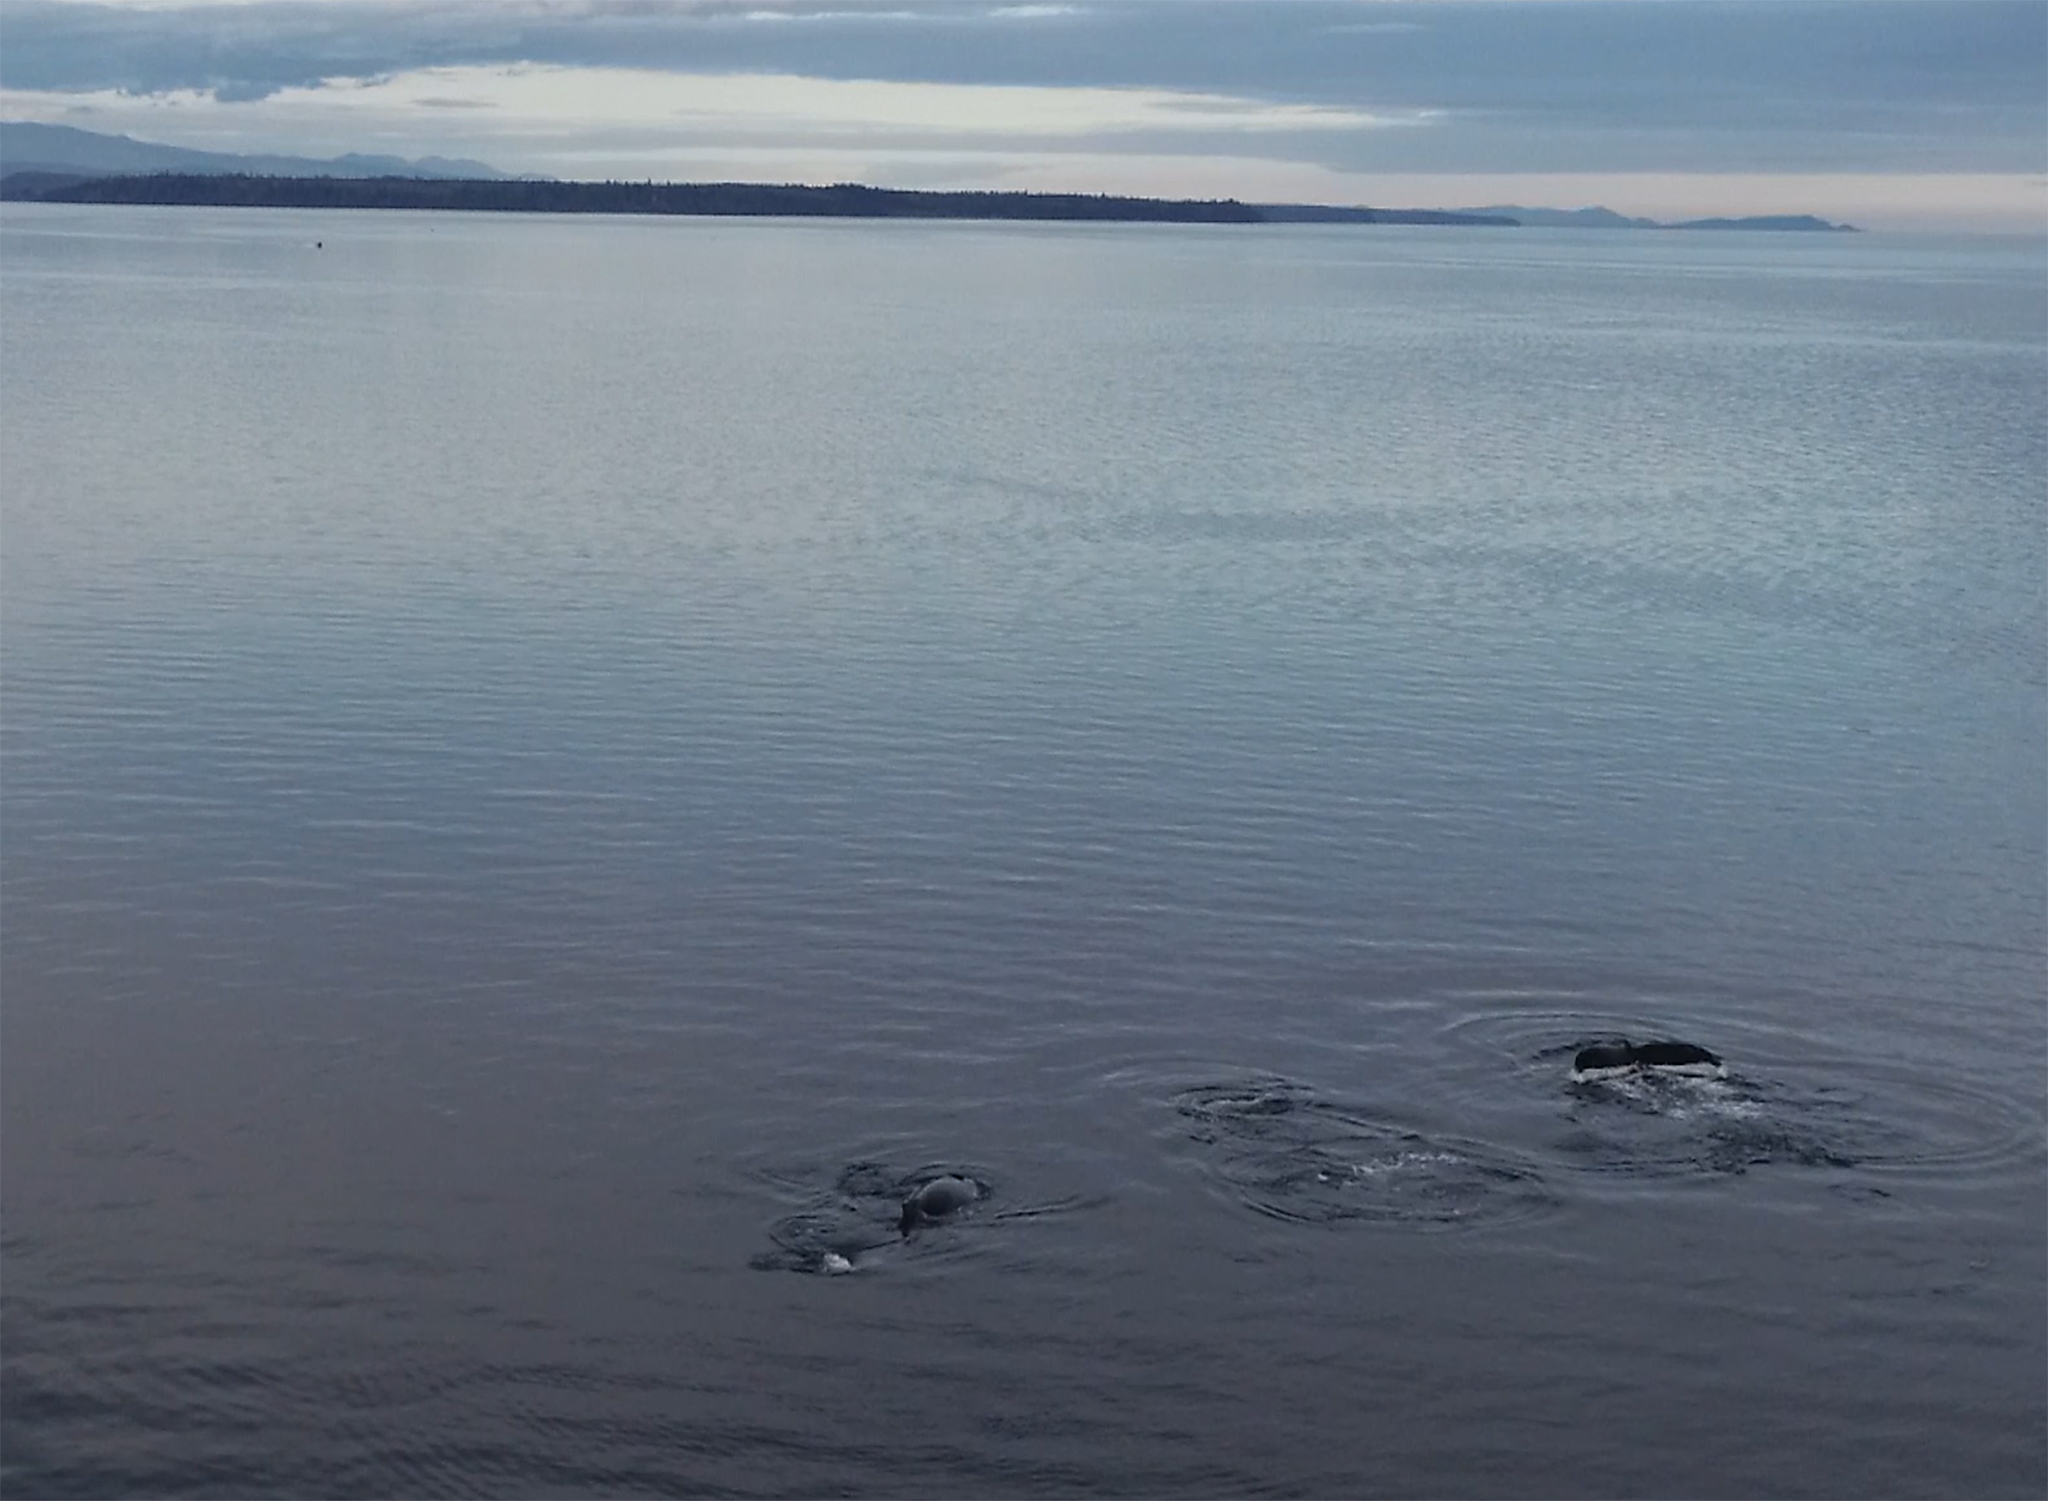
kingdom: Animalia
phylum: Chordata
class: Mammalia
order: Cetacea
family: Balaenopteridae
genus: Megaptera
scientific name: Megaptera novaeangliae
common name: Humpback whale
